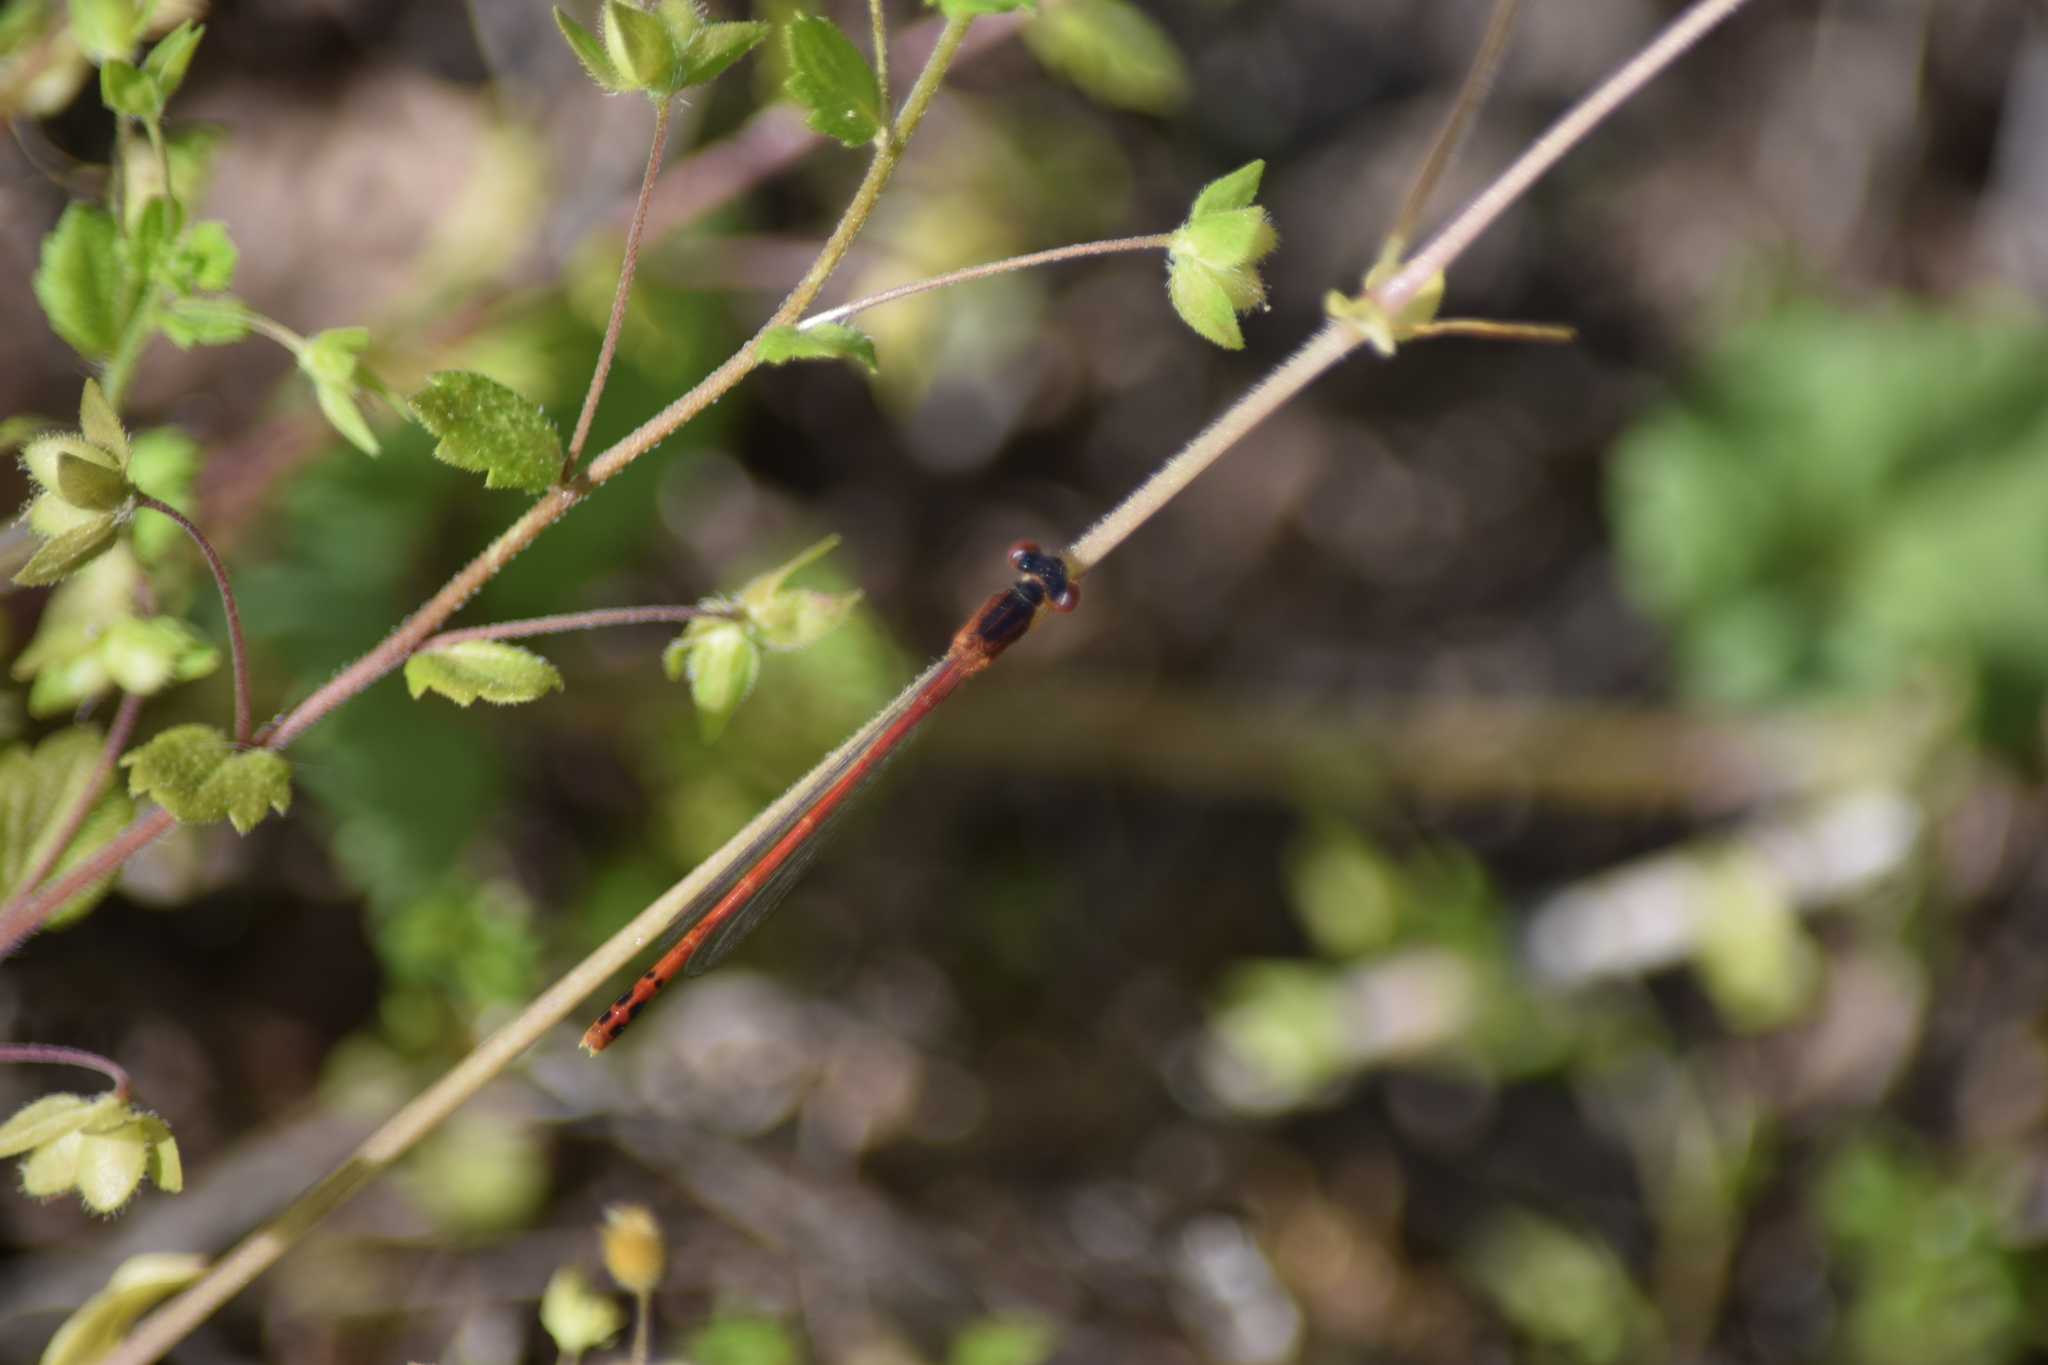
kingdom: Animalia
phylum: Arthropoda
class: Insecta
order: Odonata
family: Coenagrionidae
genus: Amphiagrion
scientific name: Amphiagrion saucium
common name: Eastern red damsel
